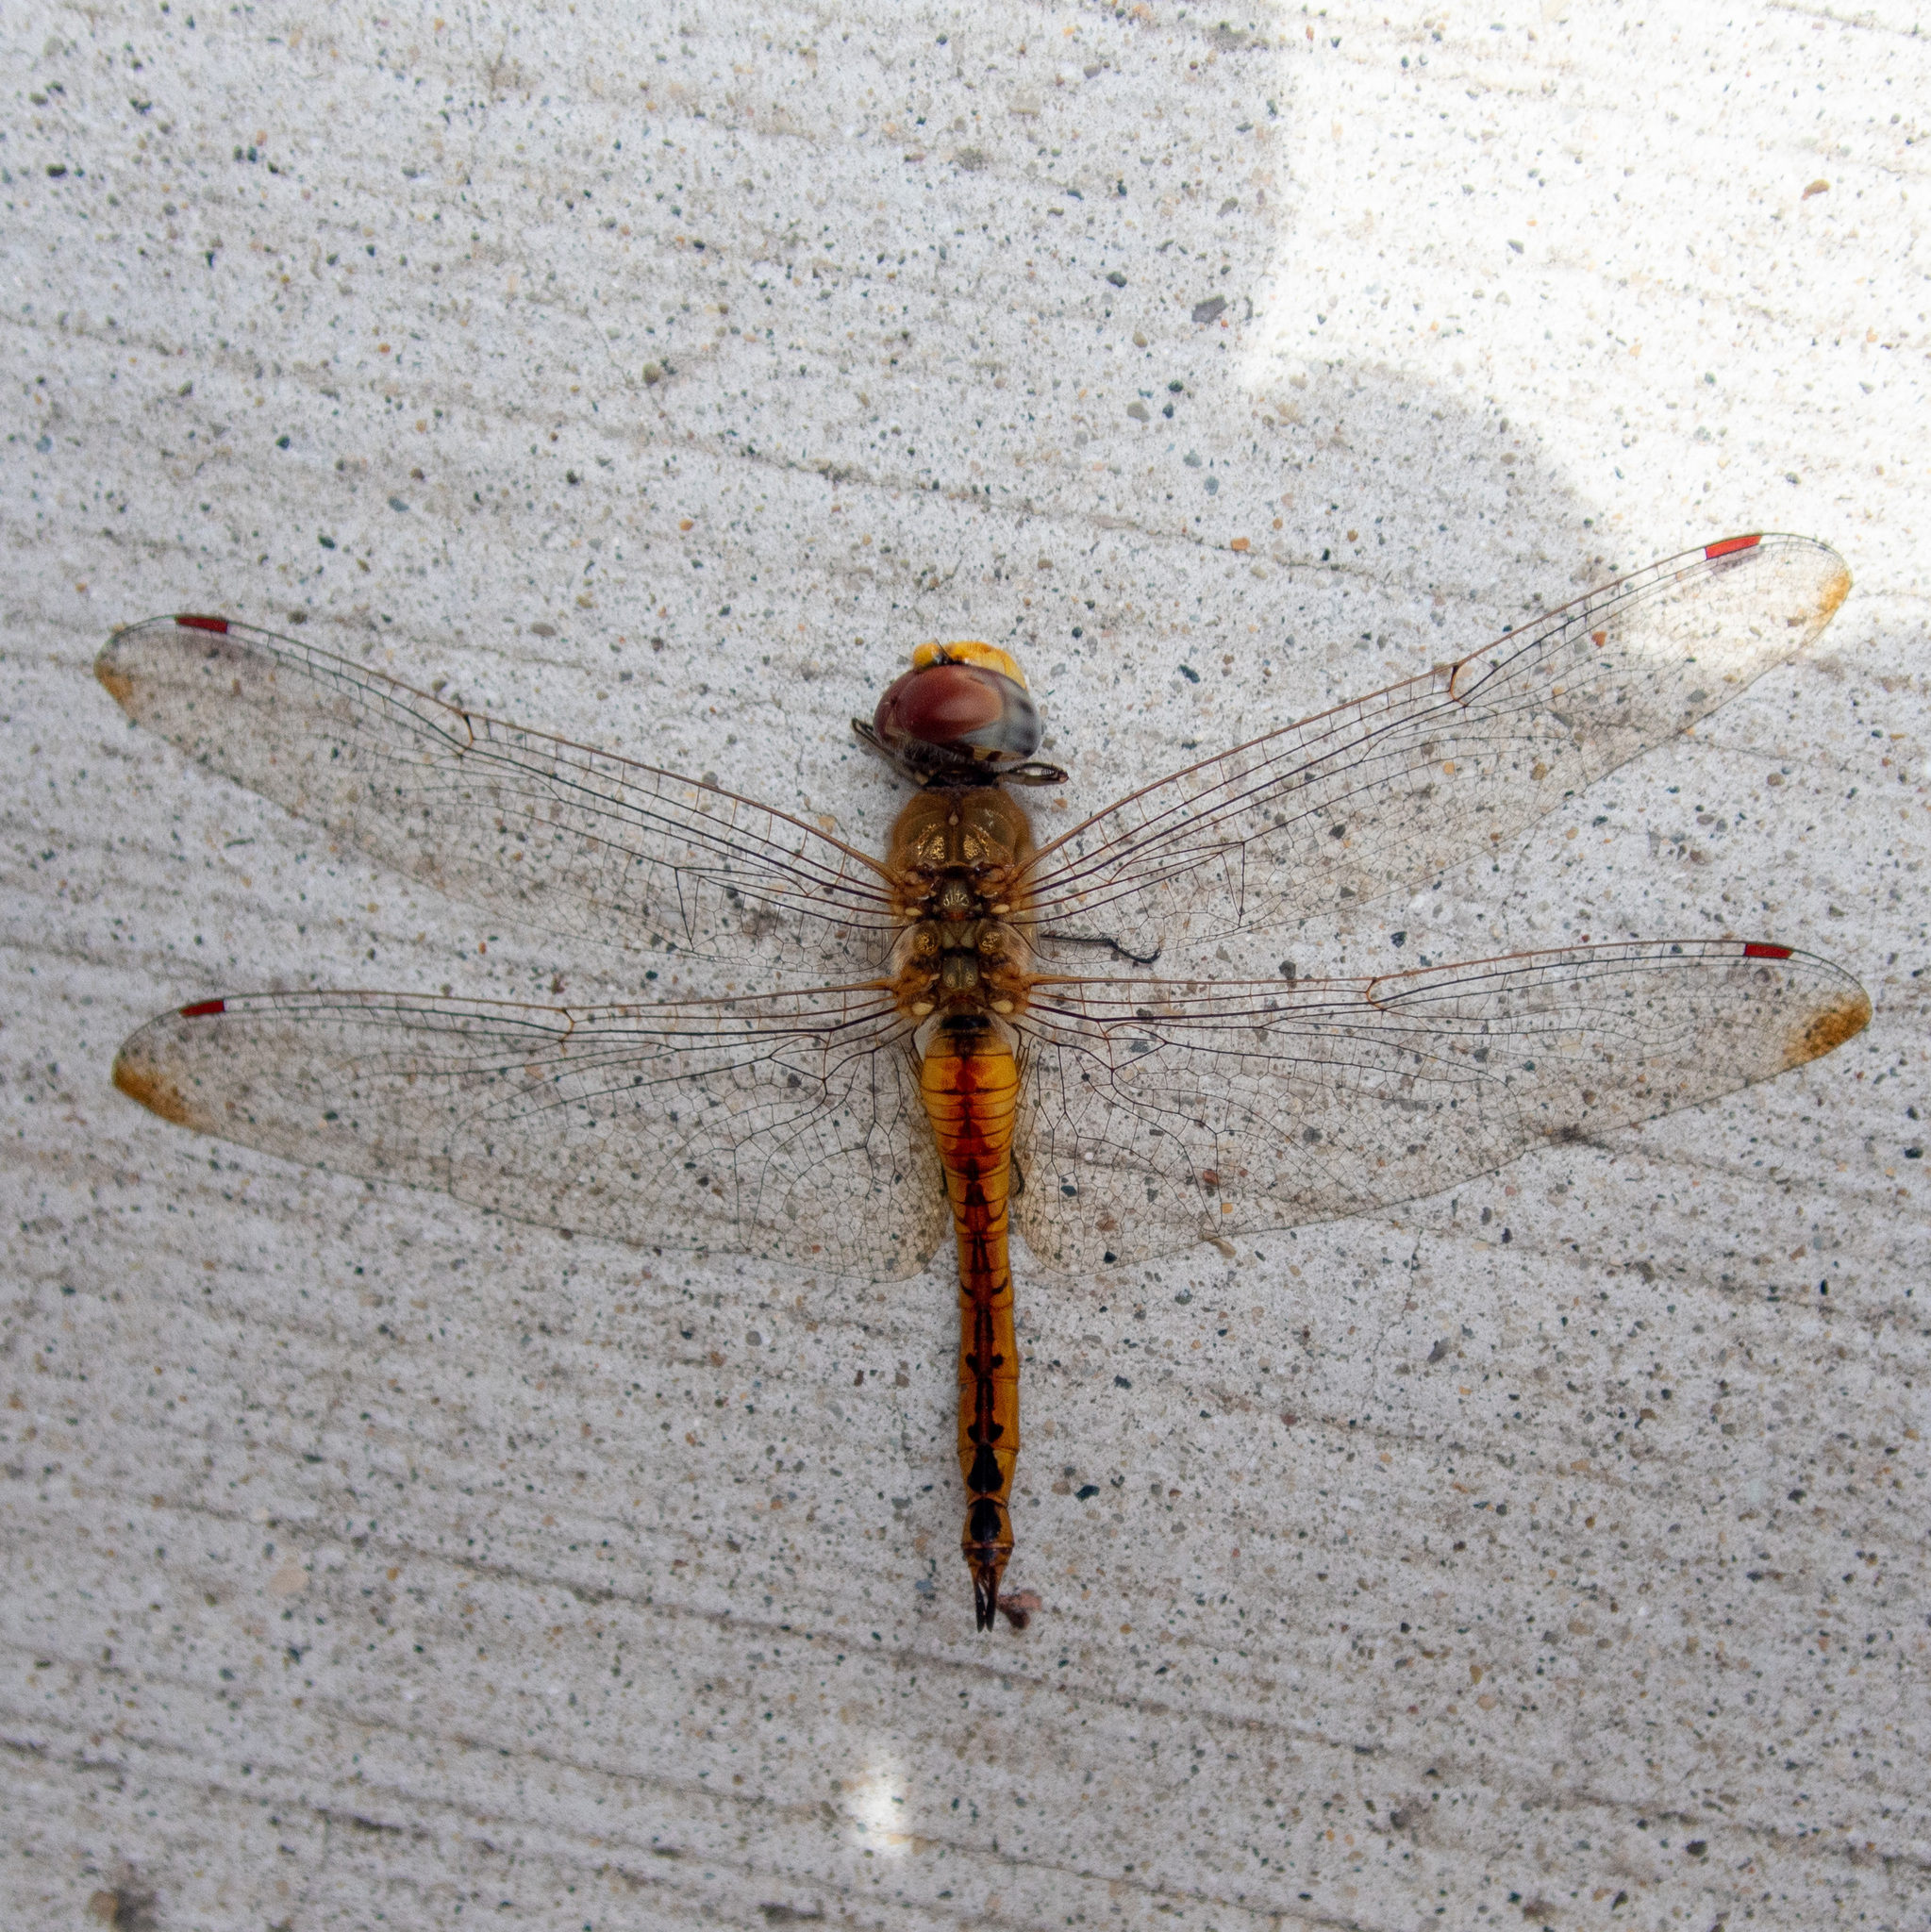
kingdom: Animalia
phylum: Arthropoda
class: Insecta
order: Odonata
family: Libellulidae
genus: Pantala
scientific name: Pantala flavescens
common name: Wandering glider
